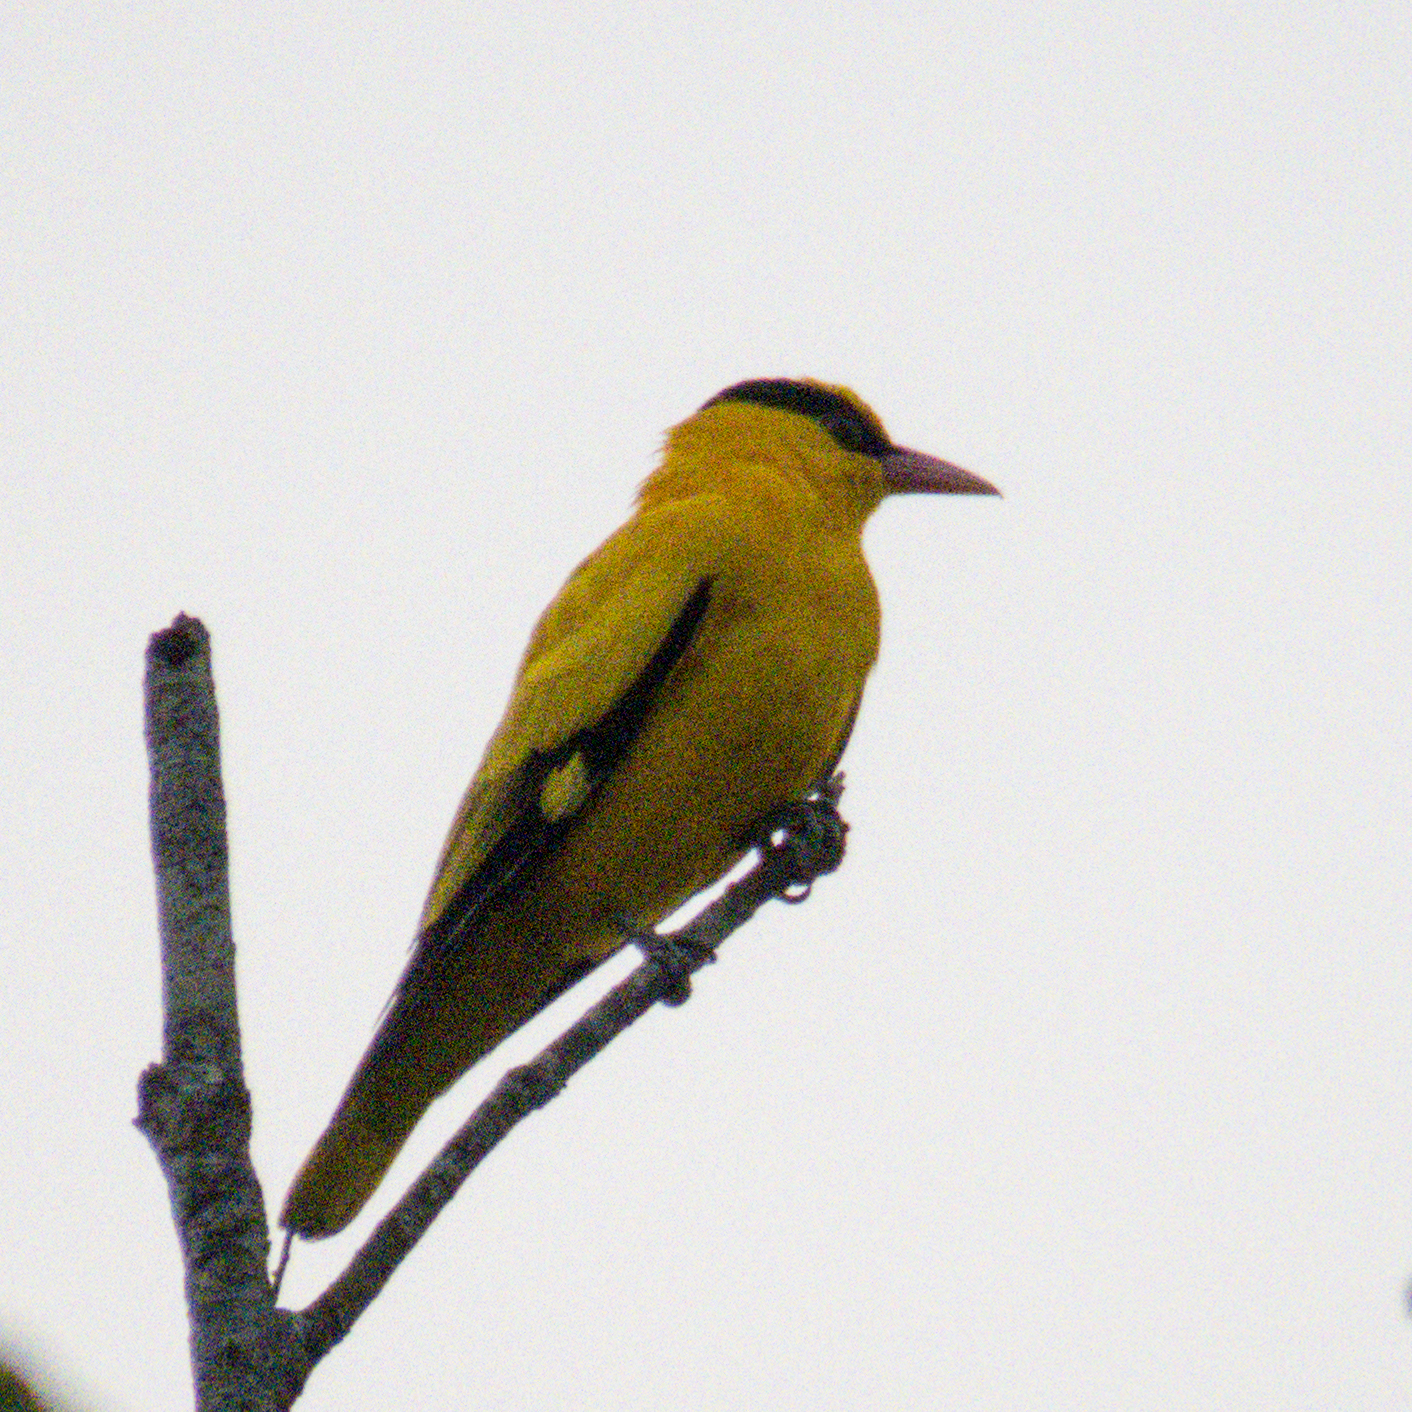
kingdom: Animalia
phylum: Chordata
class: Aves
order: Passeriformes
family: Oriolidae
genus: Oriolus
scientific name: Oriolus chinensis
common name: Black-naped oriole
